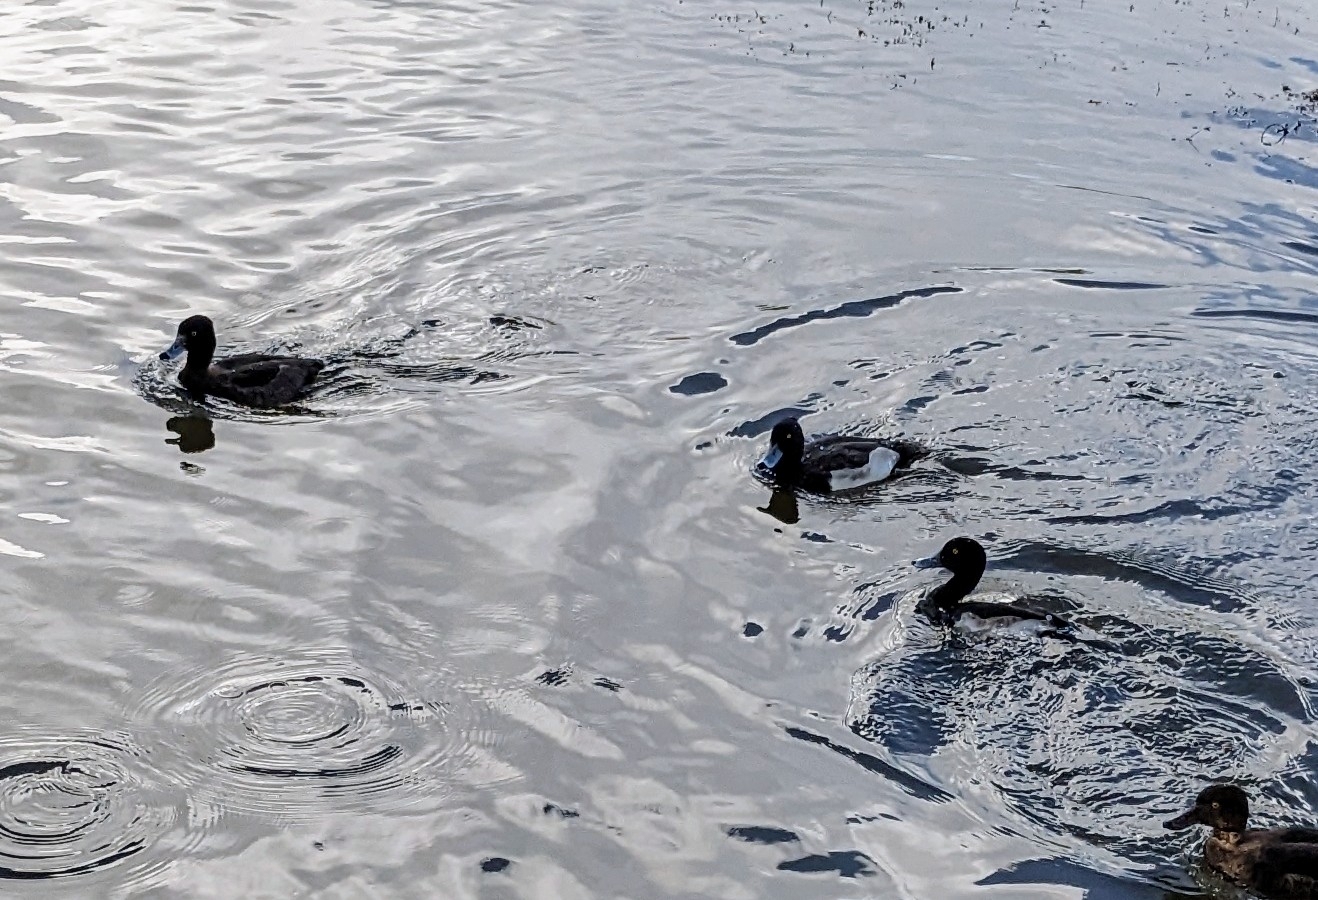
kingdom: Animalia
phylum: Chordata
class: Aves
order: Anseriformes
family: Anatidae
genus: Aythya
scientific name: Aythya fuligula
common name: Tufted duck
